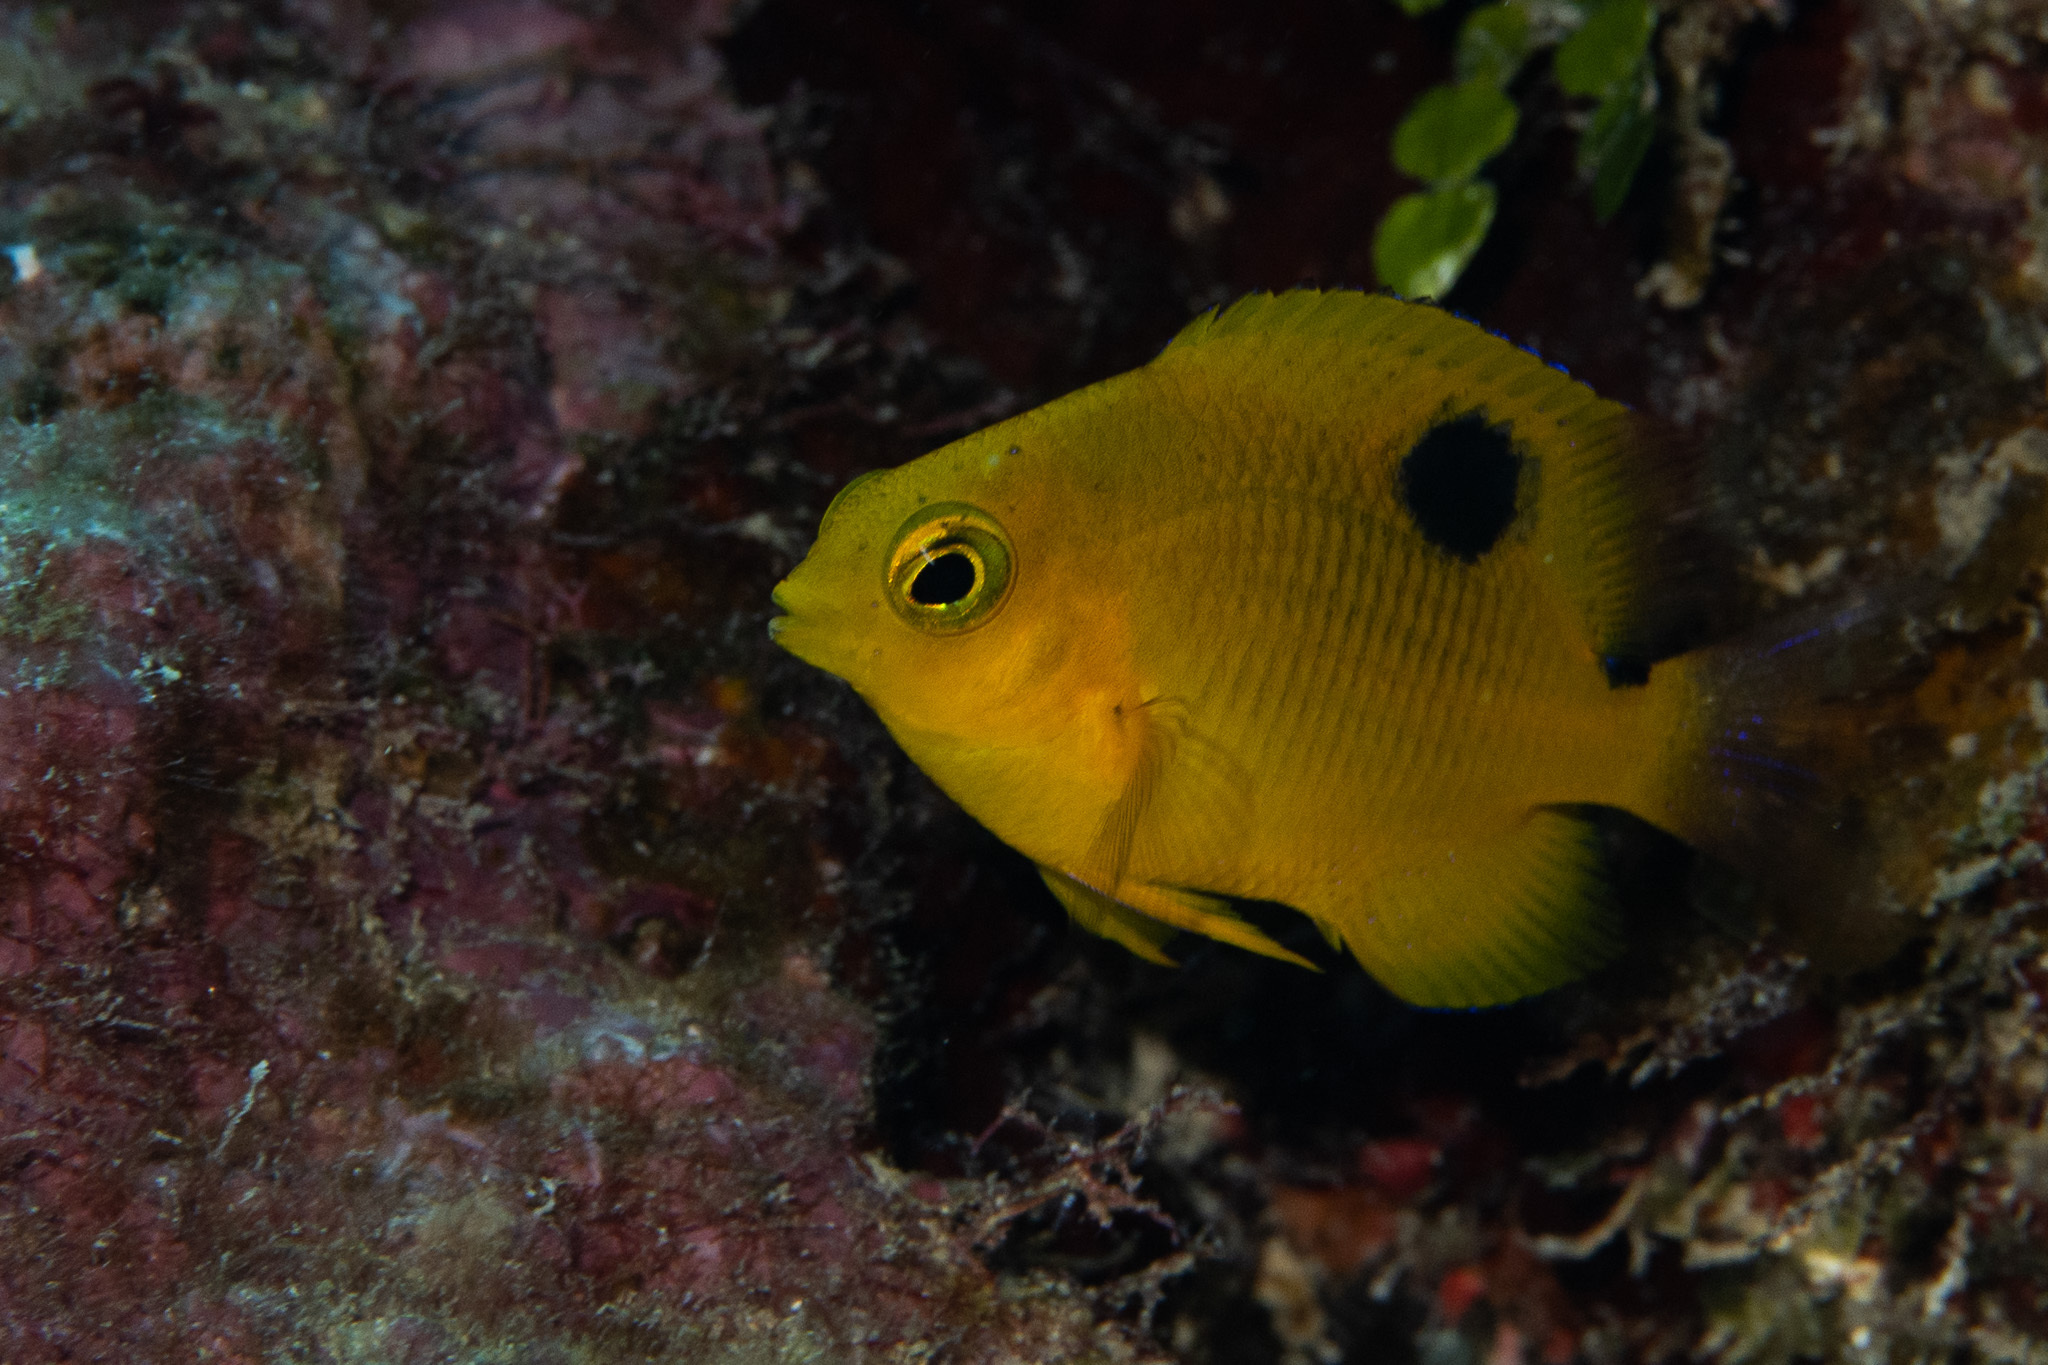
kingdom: Animalia
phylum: Chordata
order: Perciformes
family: Pomacentridae
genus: Stegastes
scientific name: Stegastes planifrons
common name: Threespot damselfish
